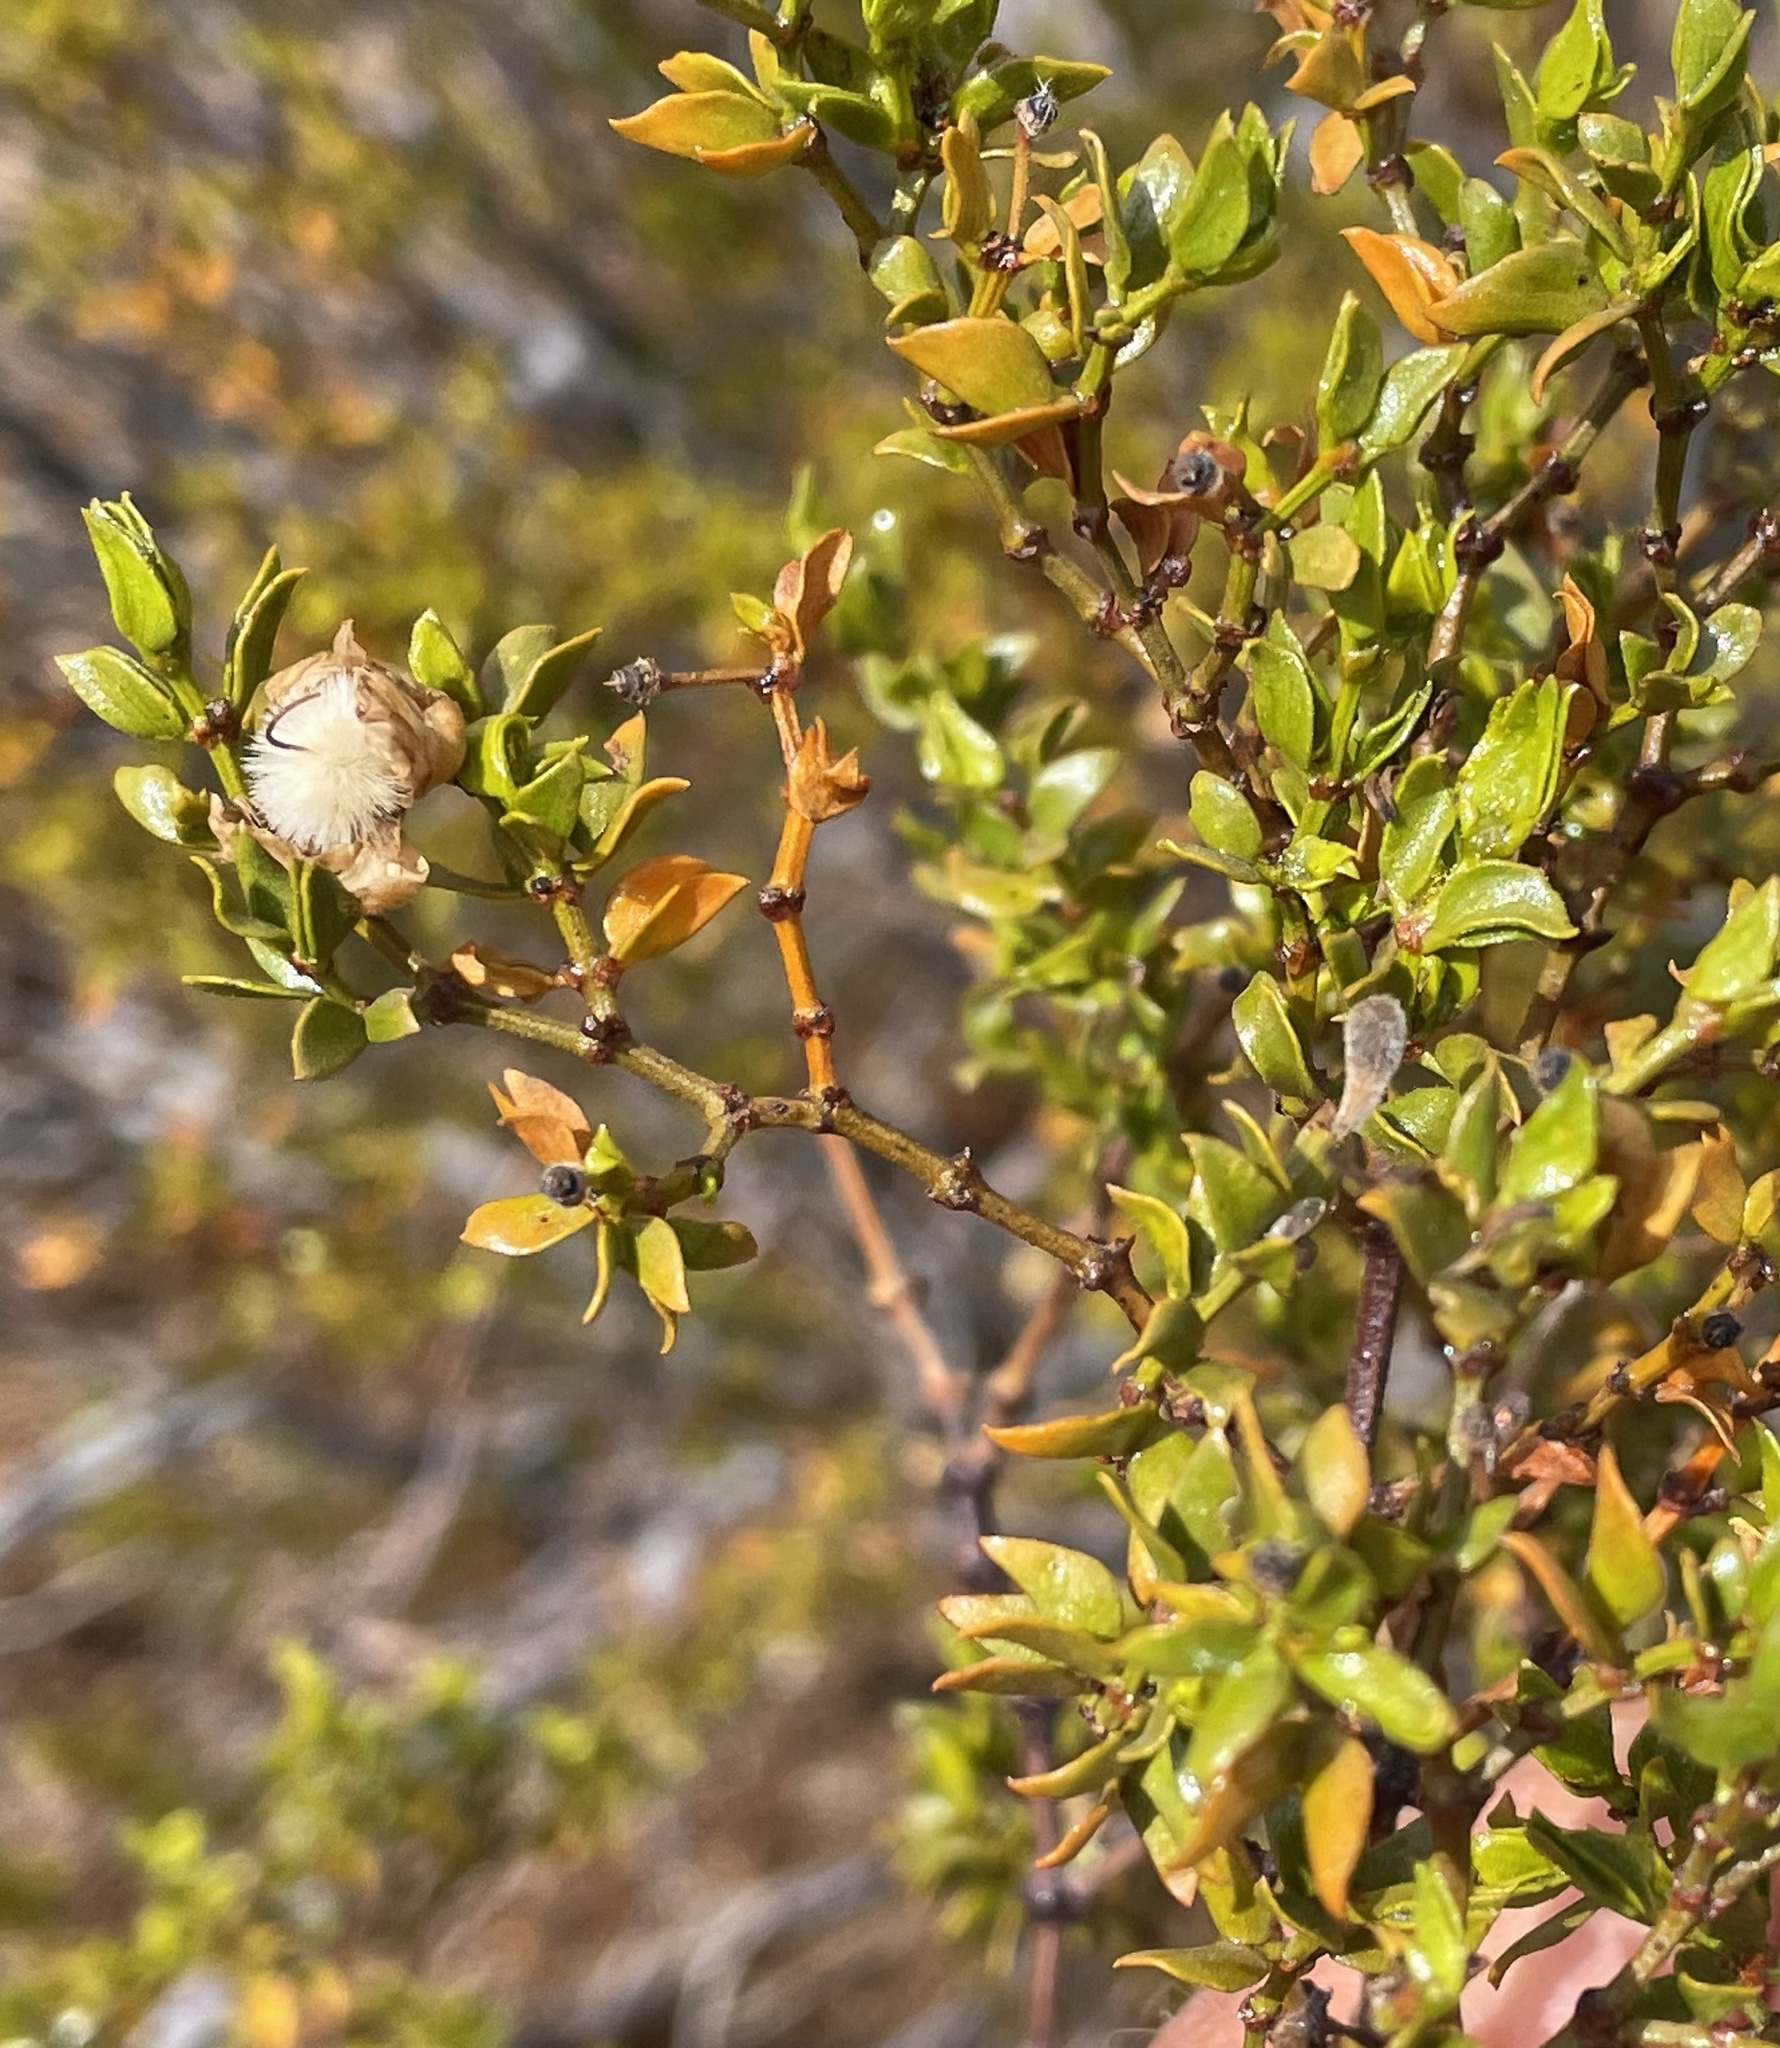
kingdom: Plantae
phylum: Tracheophyta
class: Magnoliopsida
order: Zygophyllales
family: Zygophyllaceae
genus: Larrea
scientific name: Larrea tridentata
